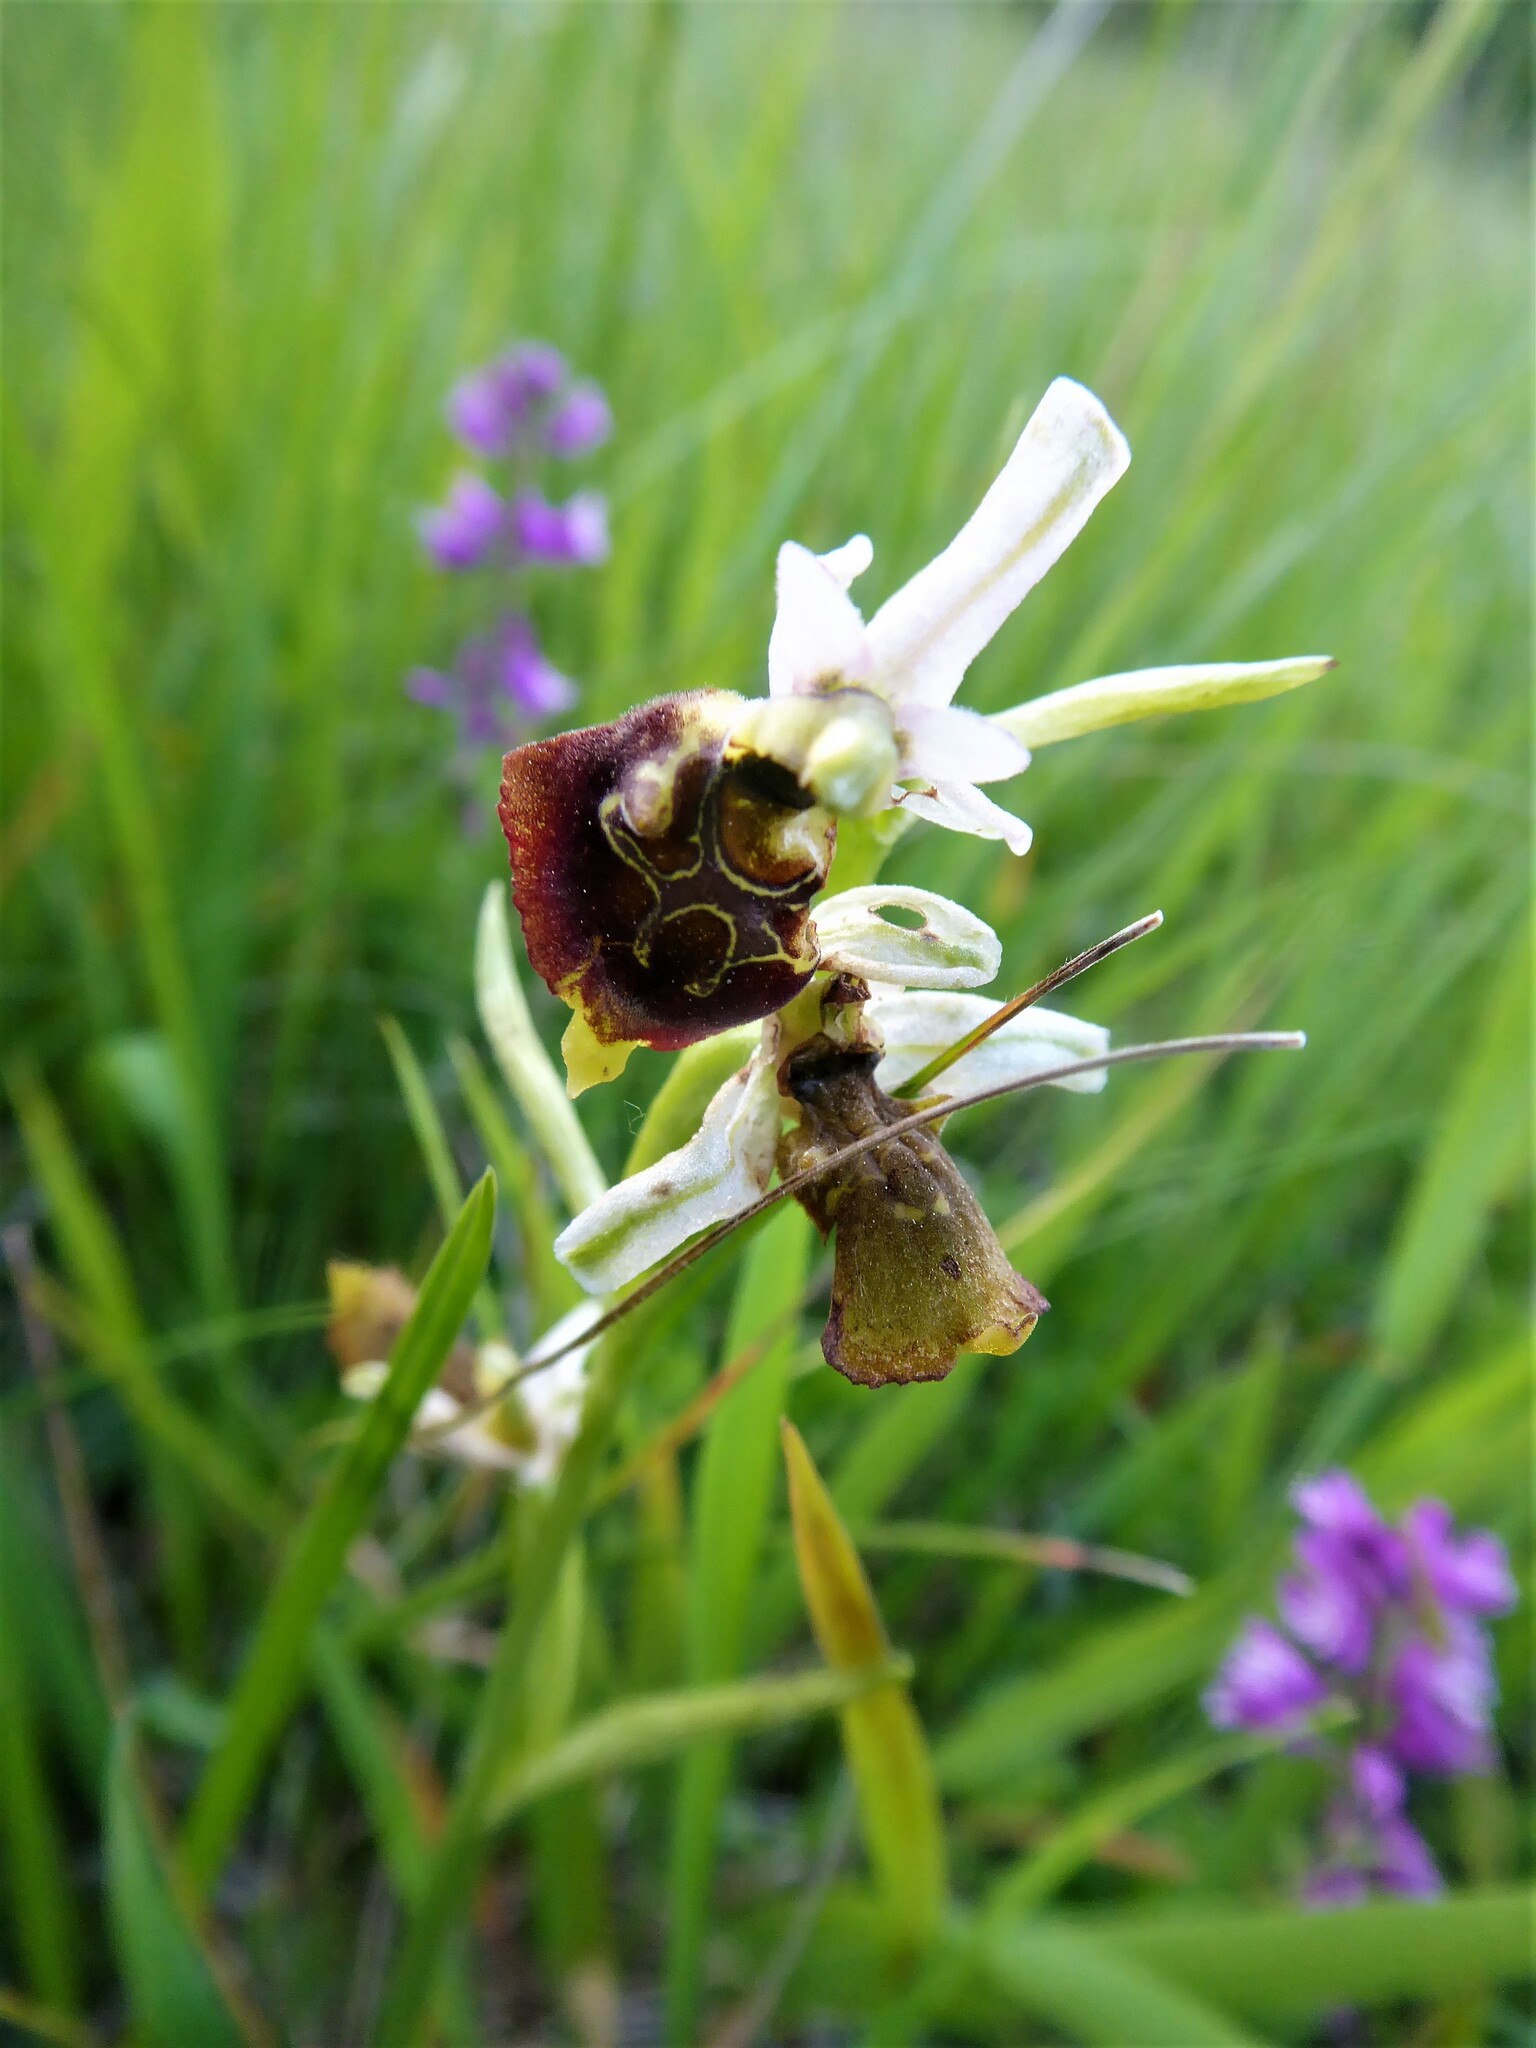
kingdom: Plantae
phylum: Tracheophyta
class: Liliopsida
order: Asparagales
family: Orchidaceae
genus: Ophrys
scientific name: Ophrys holosericea
